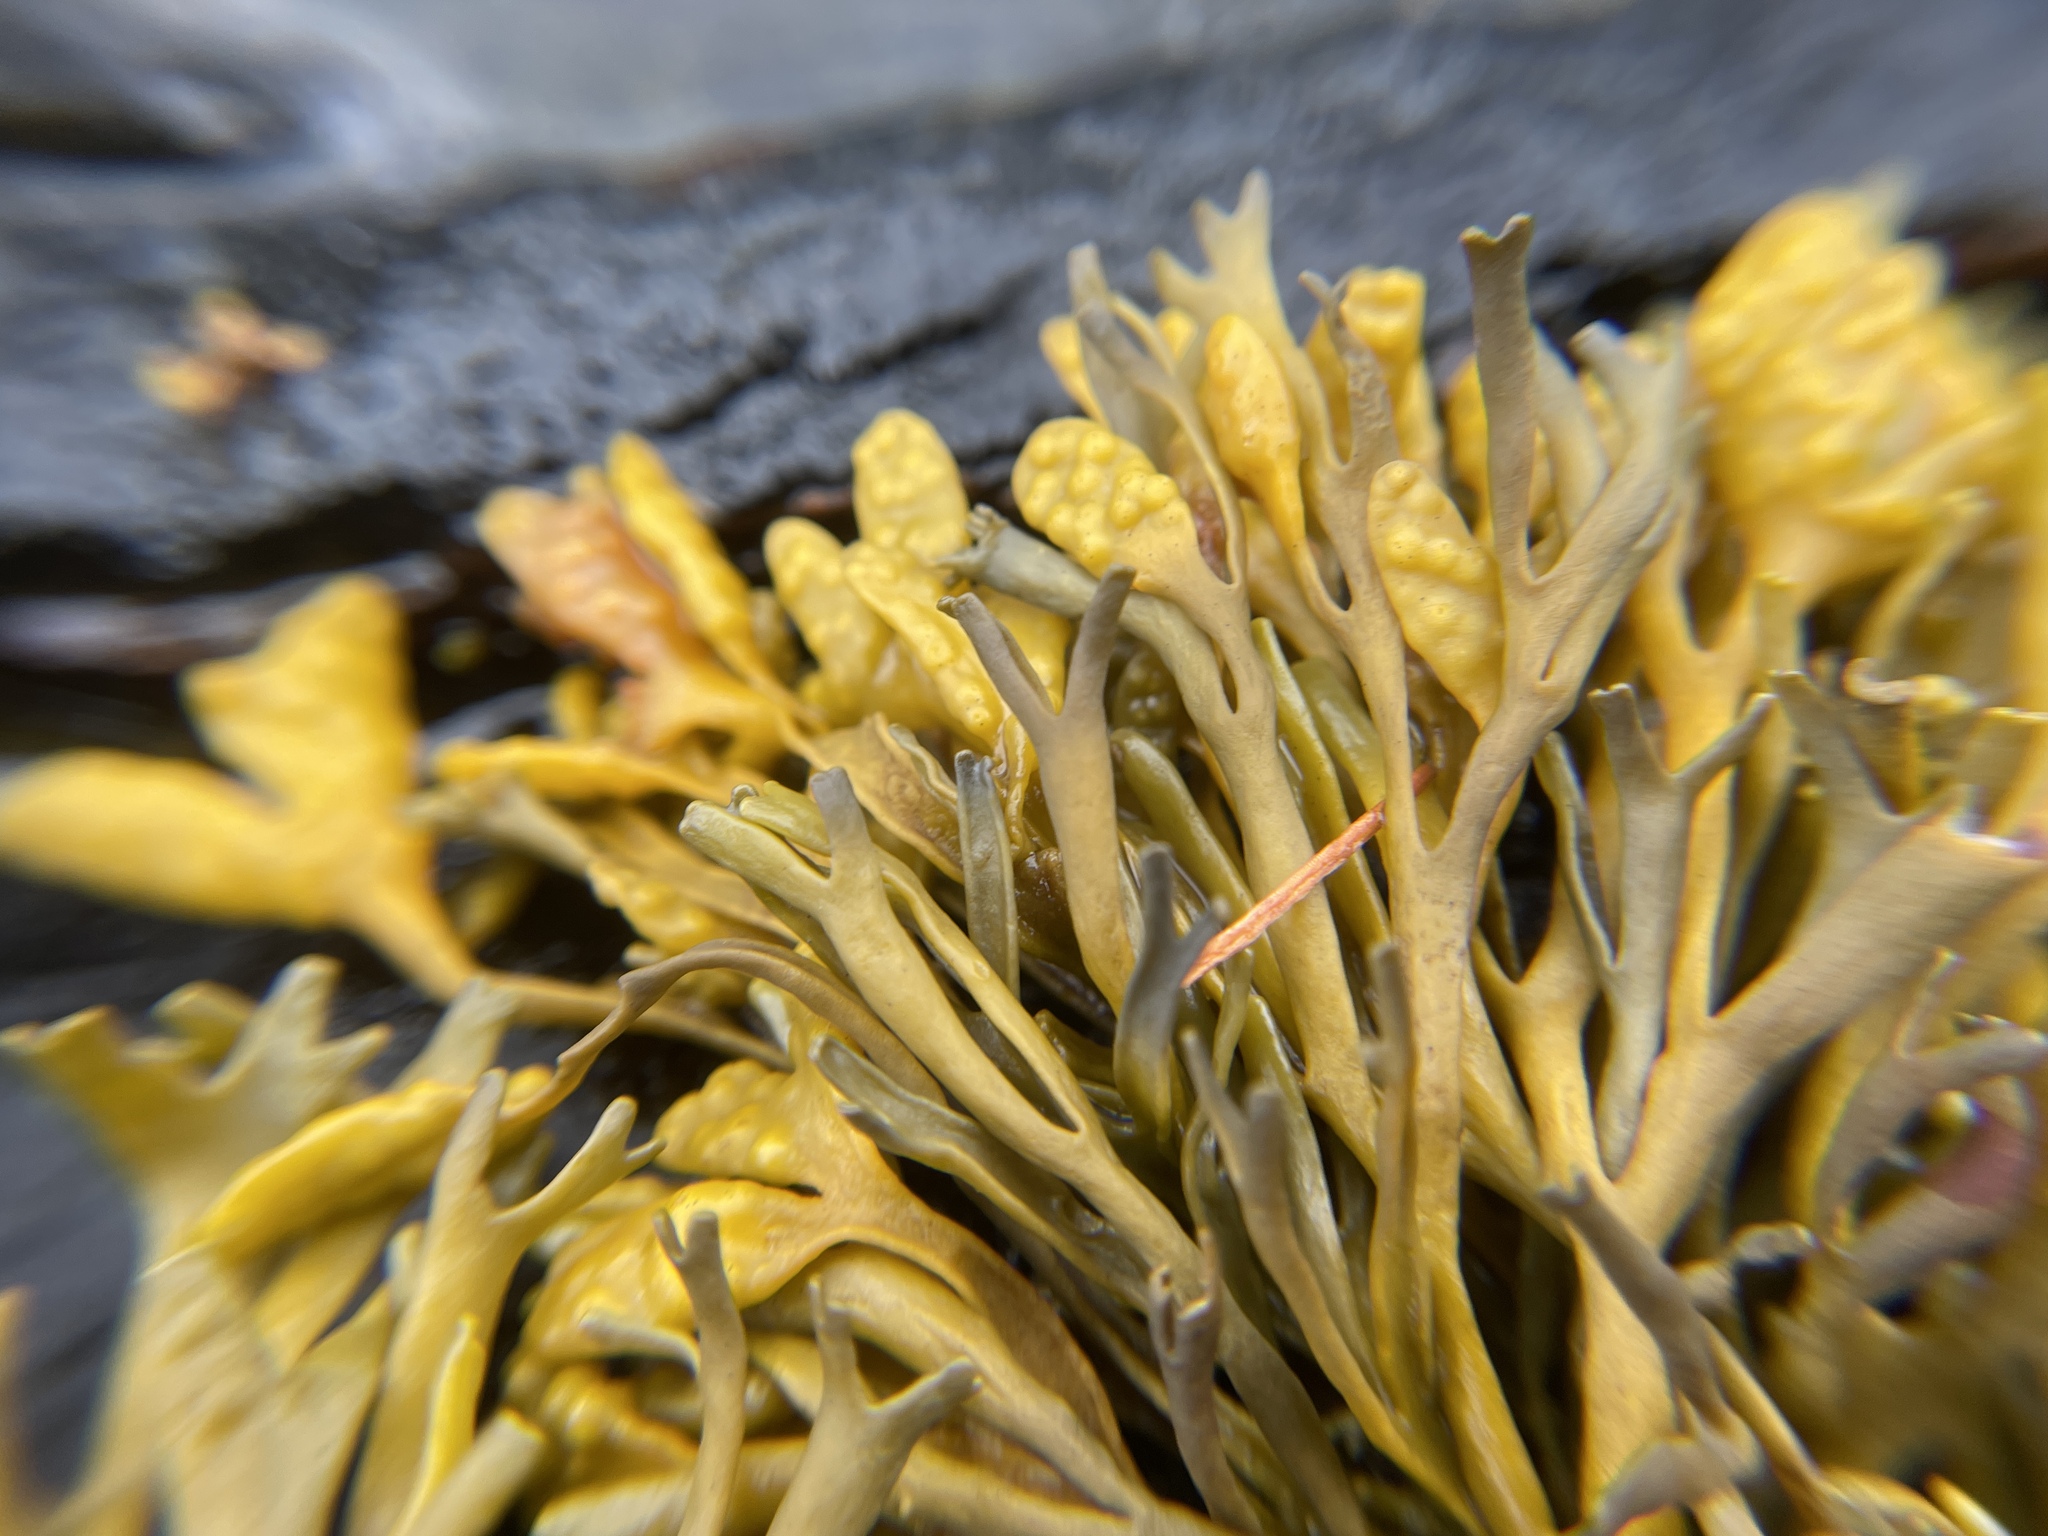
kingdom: Chromista
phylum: Ochrophyta
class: Phaeophyceae
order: Fucales
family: Fucaceae
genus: Pelvetia
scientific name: Pelvetia canaliculata
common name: Channelled wrack
